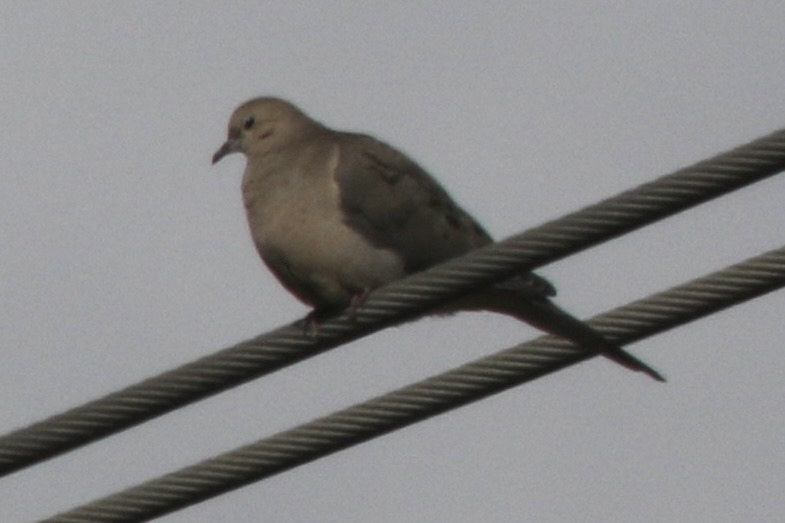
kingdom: Animalia
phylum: Chordata
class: Aves
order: Columbiformes
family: Columbidae
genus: Zenaida
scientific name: Zenaida macroura
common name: Mourning dove
